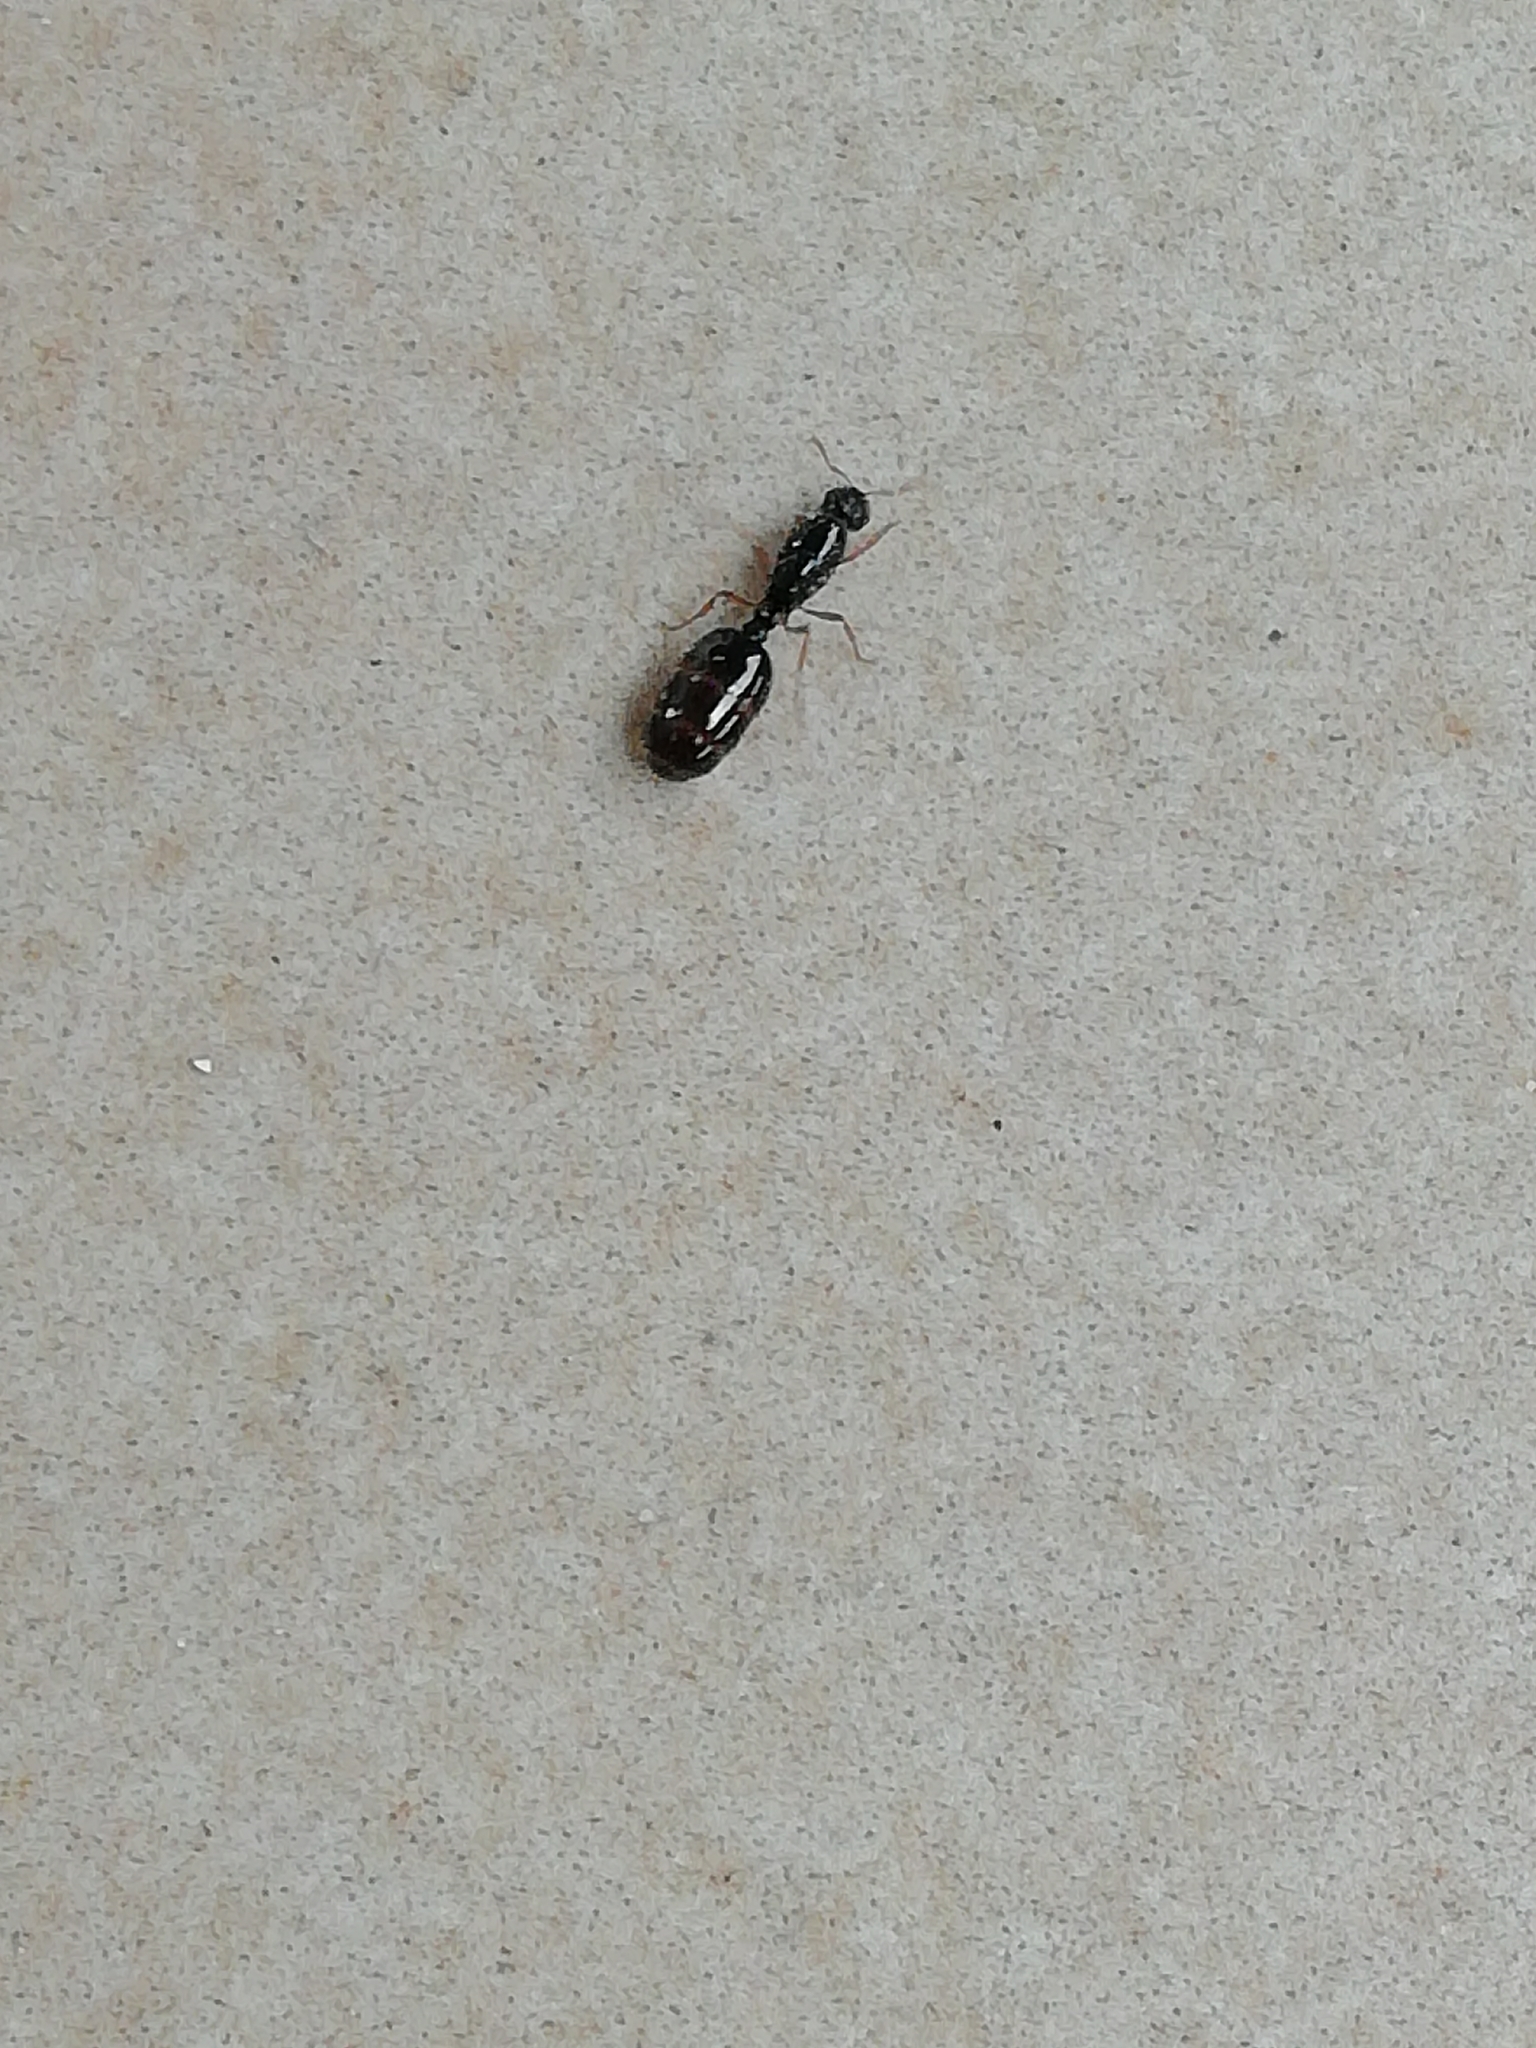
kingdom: Animalia
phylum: Arthropoda
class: Insecta
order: Hymenoptera
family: Formicidae
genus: Solenopsis
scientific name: Solenopsis fugax
